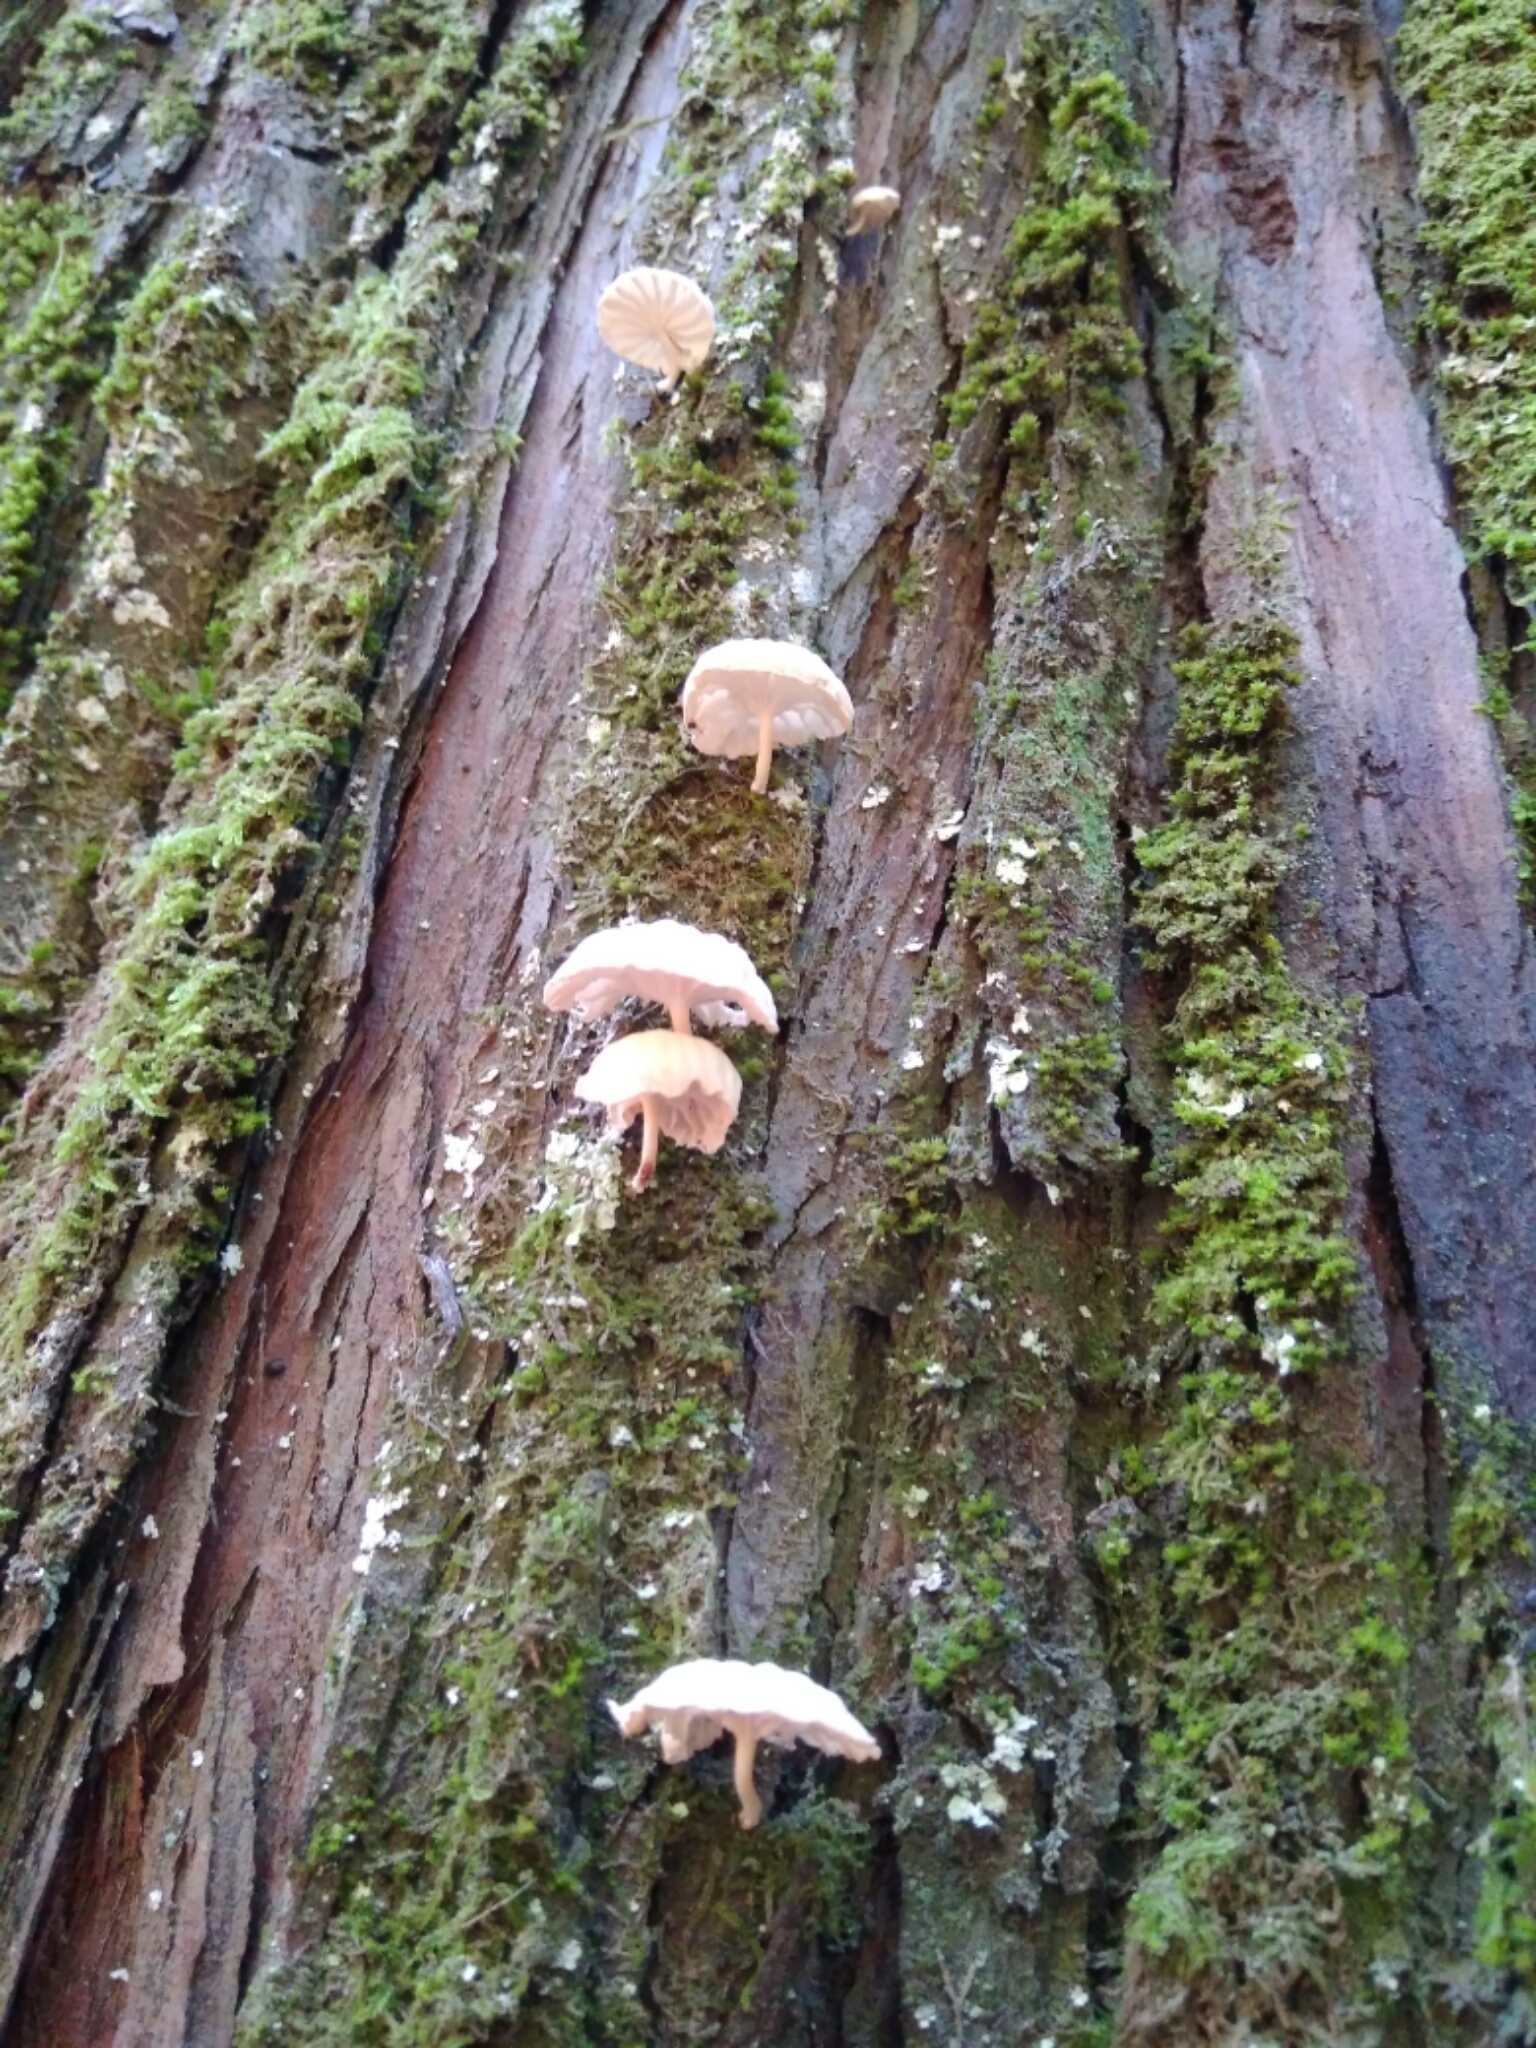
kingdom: Fungi
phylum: Basidiomycota
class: Agaricomycetes
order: Agaricales
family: Omphalotaceae
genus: Marasmiellus
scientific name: Marasmiellus alliiodorus
